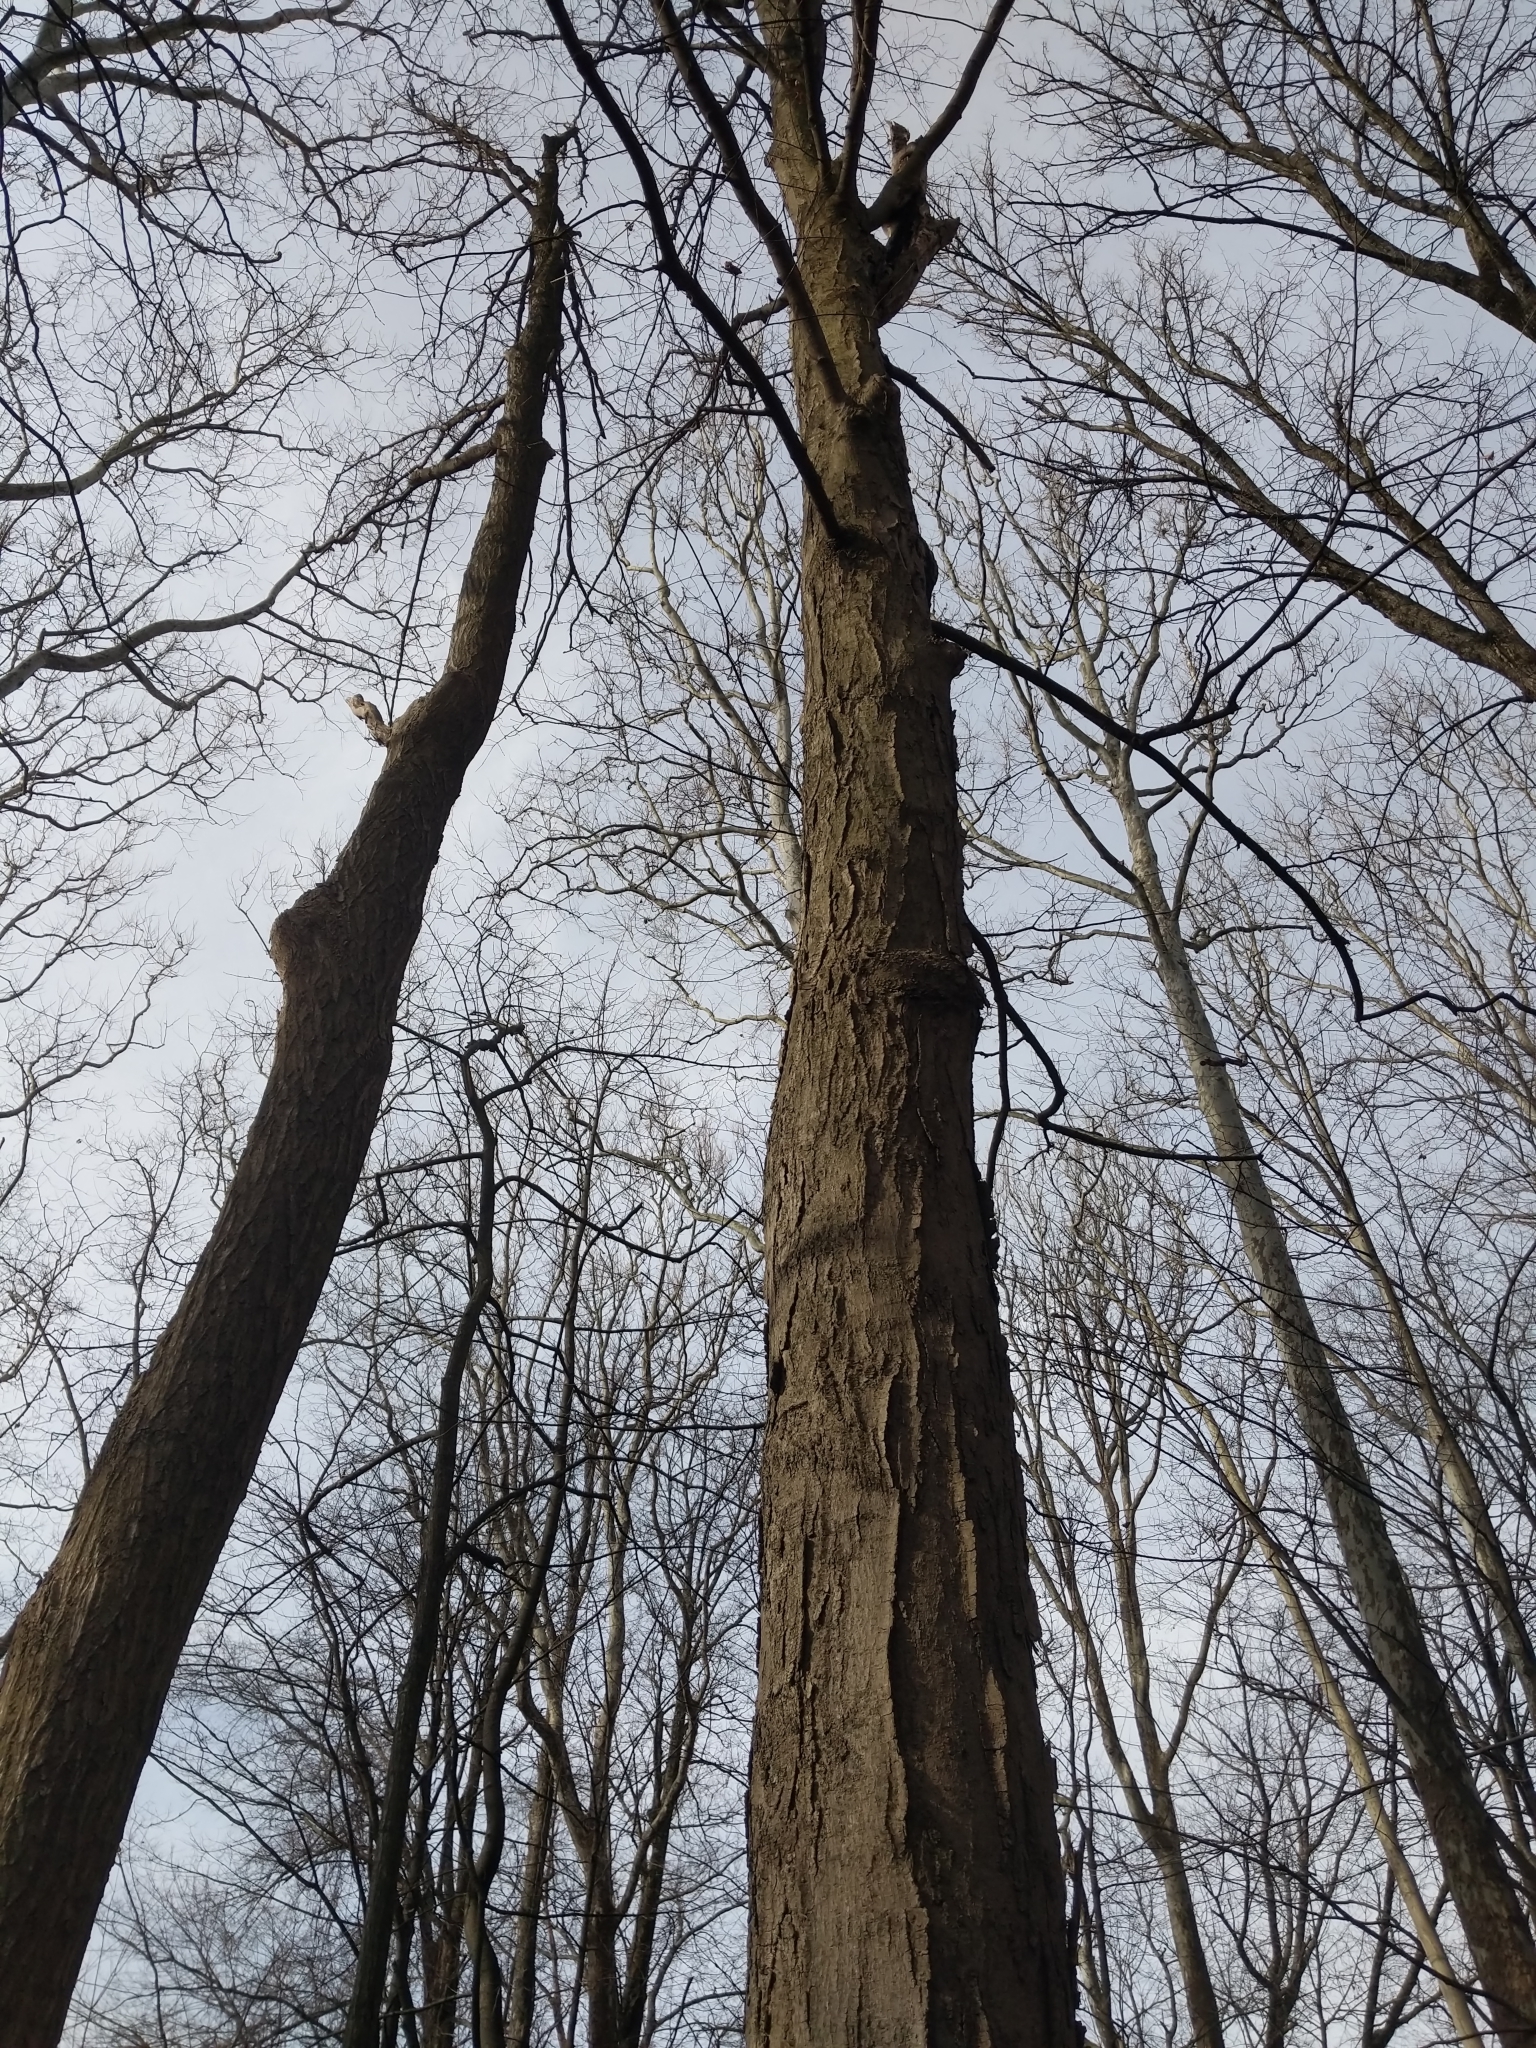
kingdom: Plantae
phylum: Tracheophyta
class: Magnoliopsida
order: Sapindales
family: Sapindaceae
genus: Acer
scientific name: Acer saccharum
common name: Sugar maple
